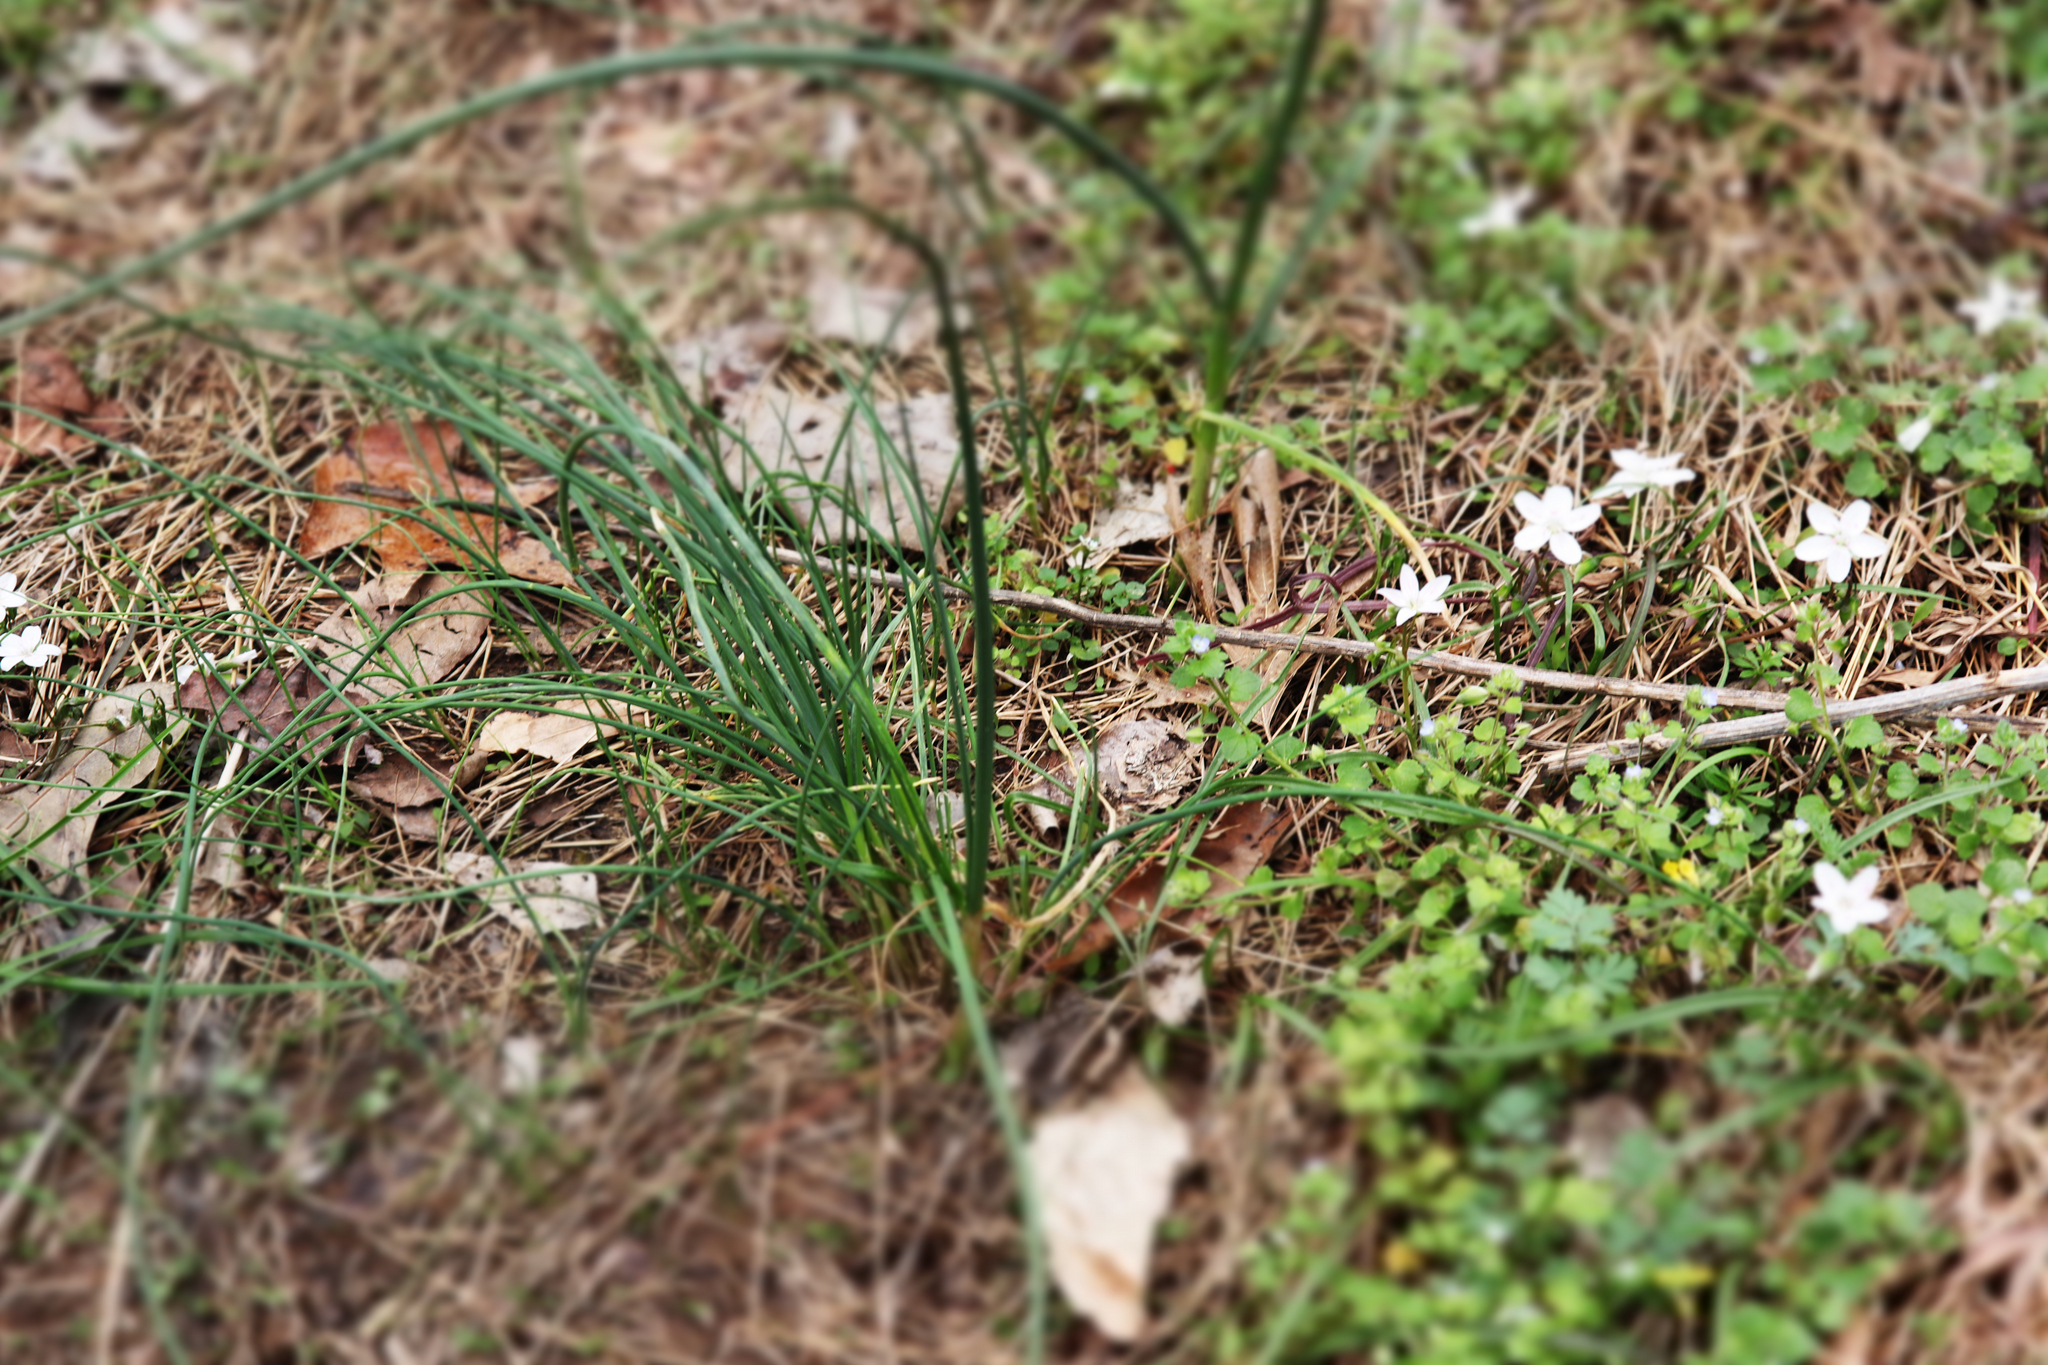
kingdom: Plantae
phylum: Tracheophyta
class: Liliopsida
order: Asparagales
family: Amaryllidaceae
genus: Allium
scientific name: Allium vineale
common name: Crow garlic
